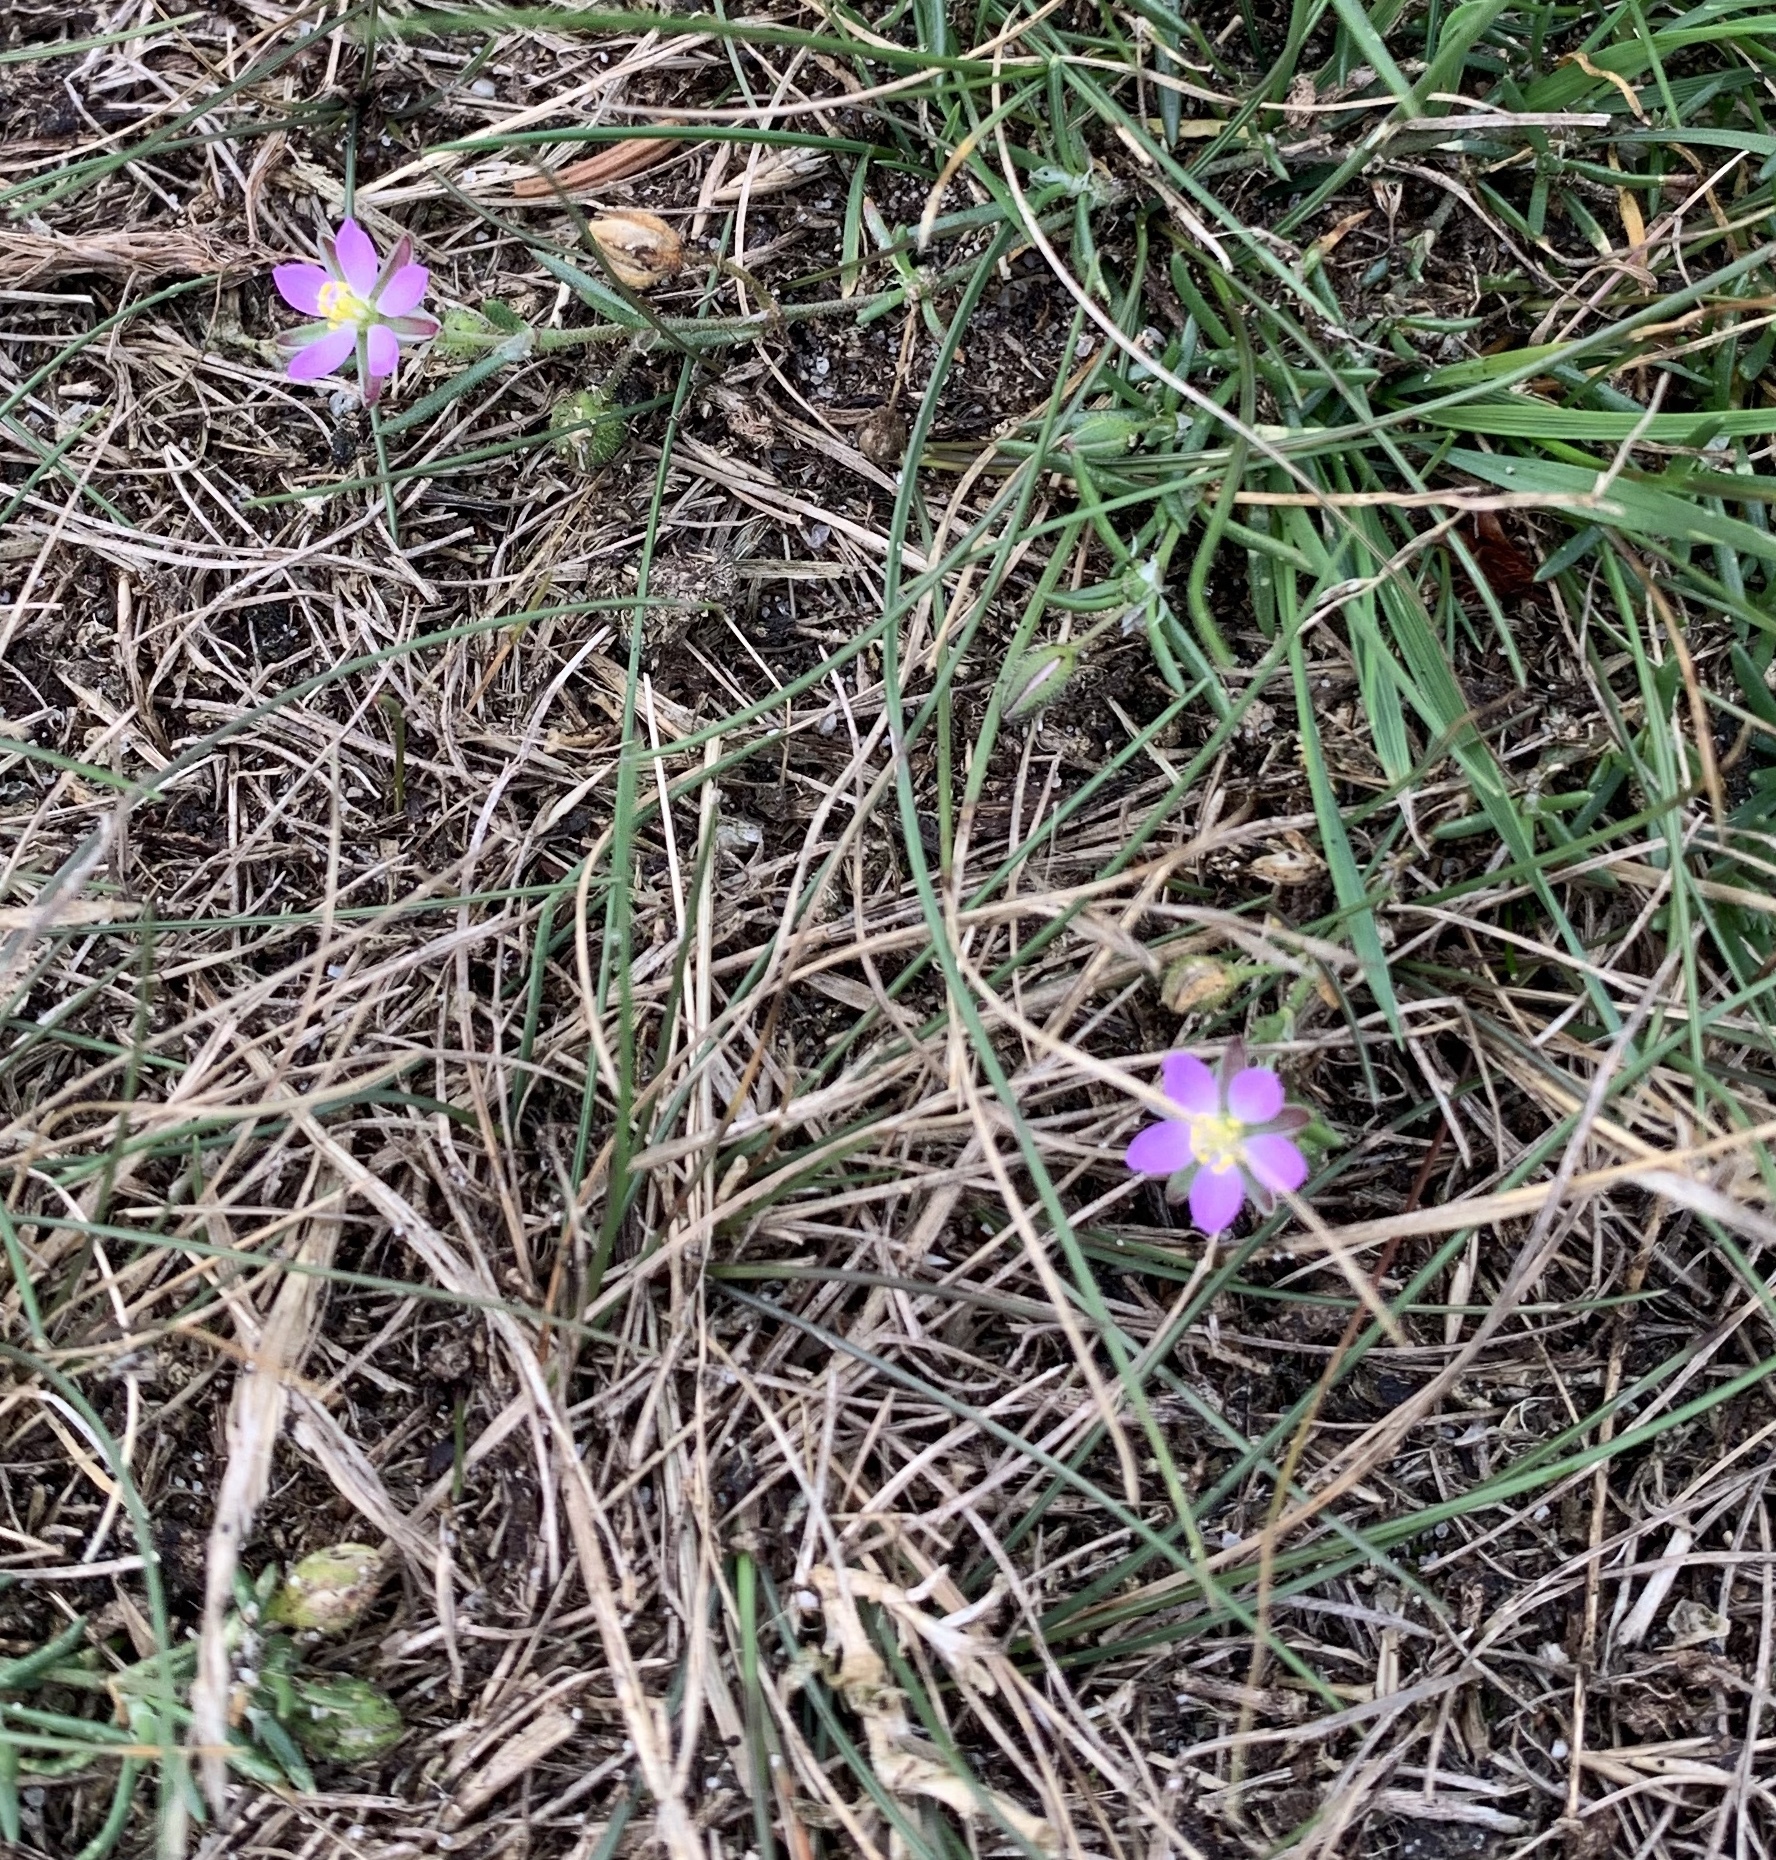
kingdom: Plantae
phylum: Tracheophyta
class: Magnoliopsida
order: Caryophyllales
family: Caryophyllaceae
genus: Spergularia
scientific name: Spergularia rubra
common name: Red sand-spurrey
